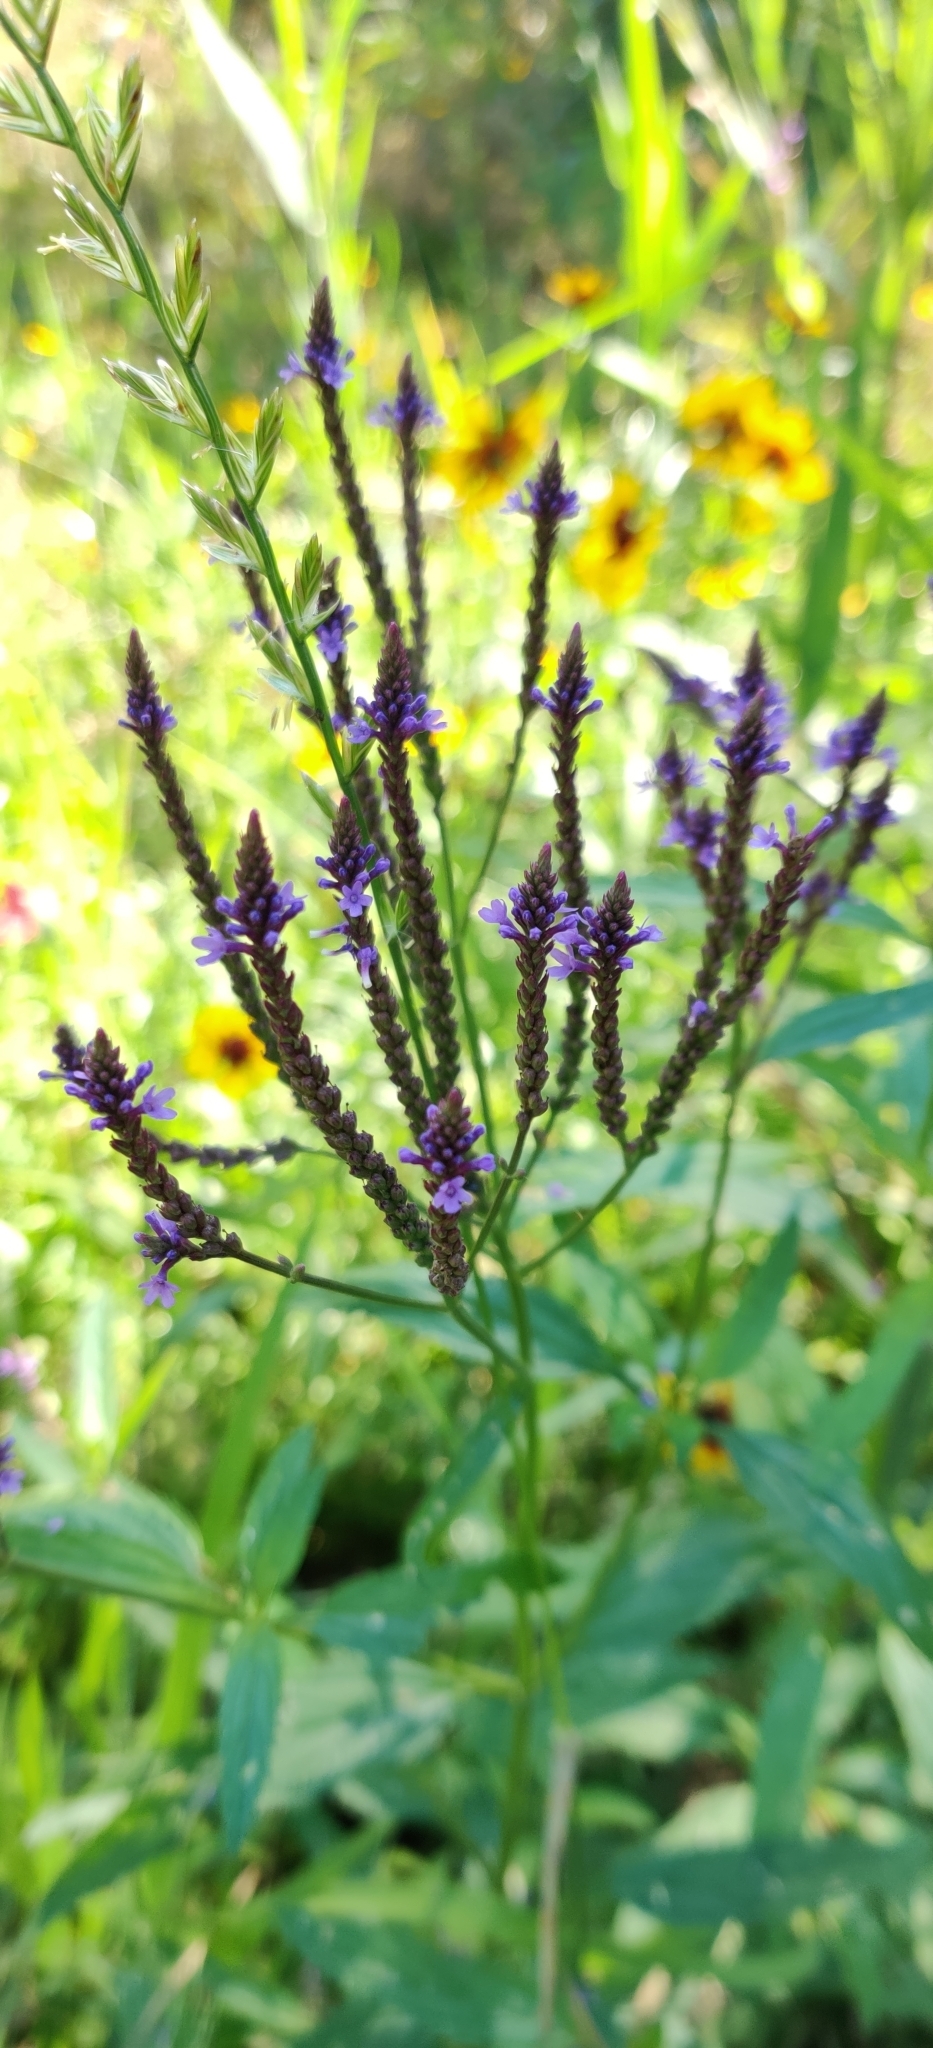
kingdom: Plantae
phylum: Tracheophyta
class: Magnoliopsida
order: Lamiales
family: Verbenaceae
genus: Verbena
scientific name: Verbena hastata
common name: American blue vervain
